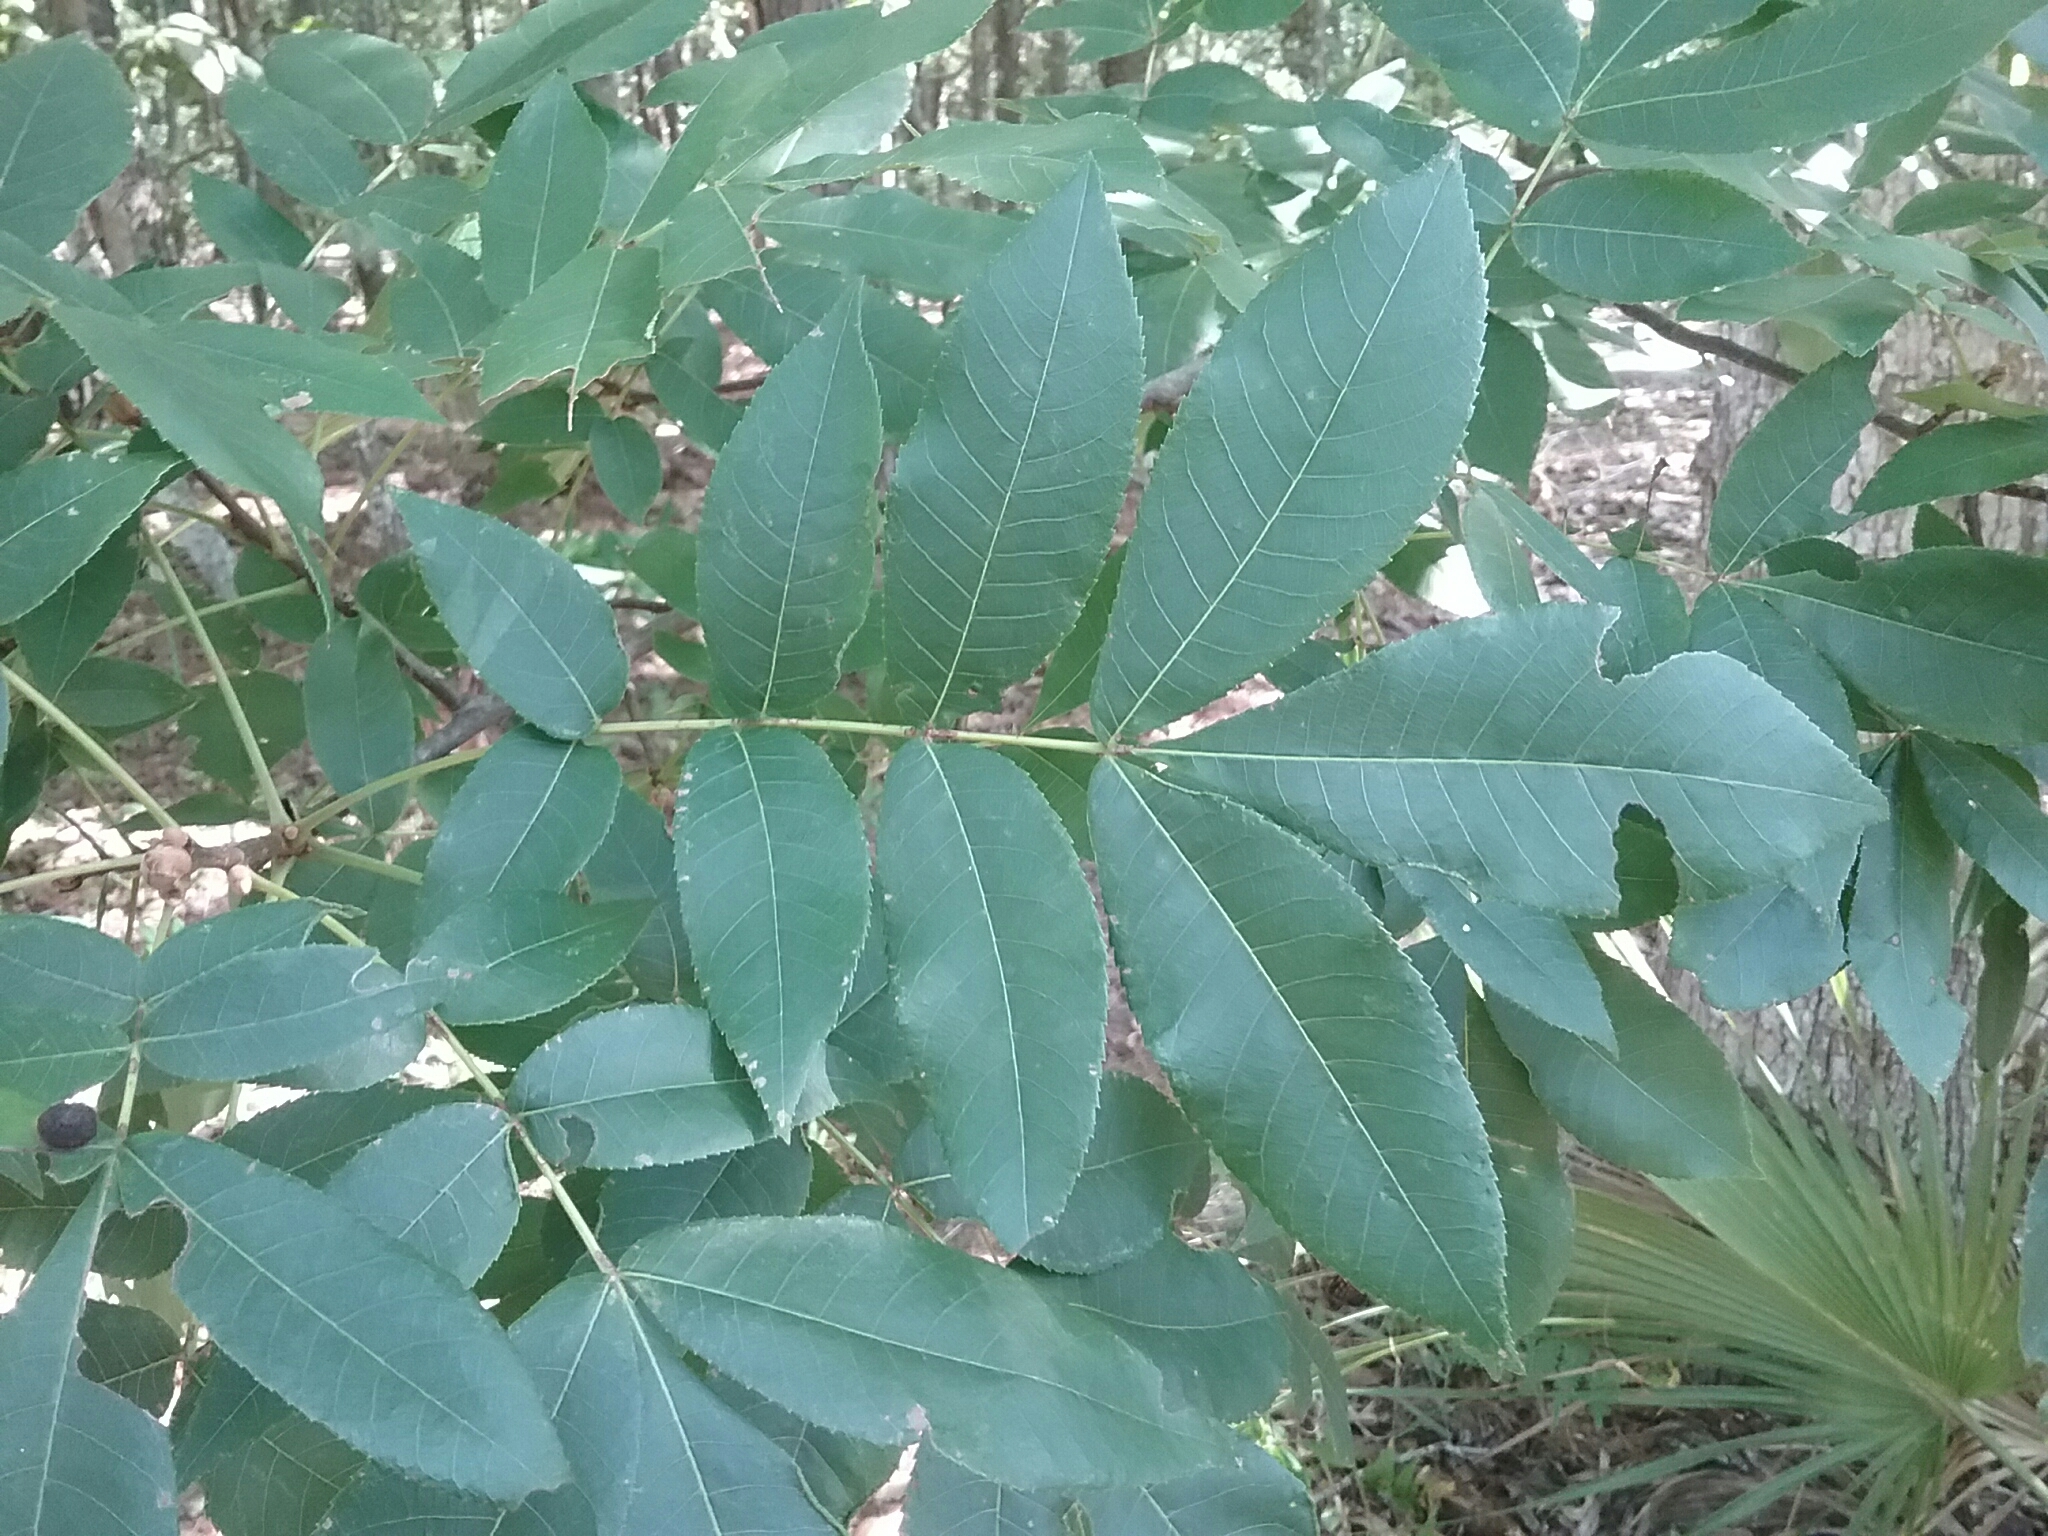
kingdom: Plantae
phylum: Tracheophyta
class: Magnoliopsida
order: Fagales
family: Juglandaceae
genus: Carya
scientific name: Carya alba
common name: Mockernut hickory
